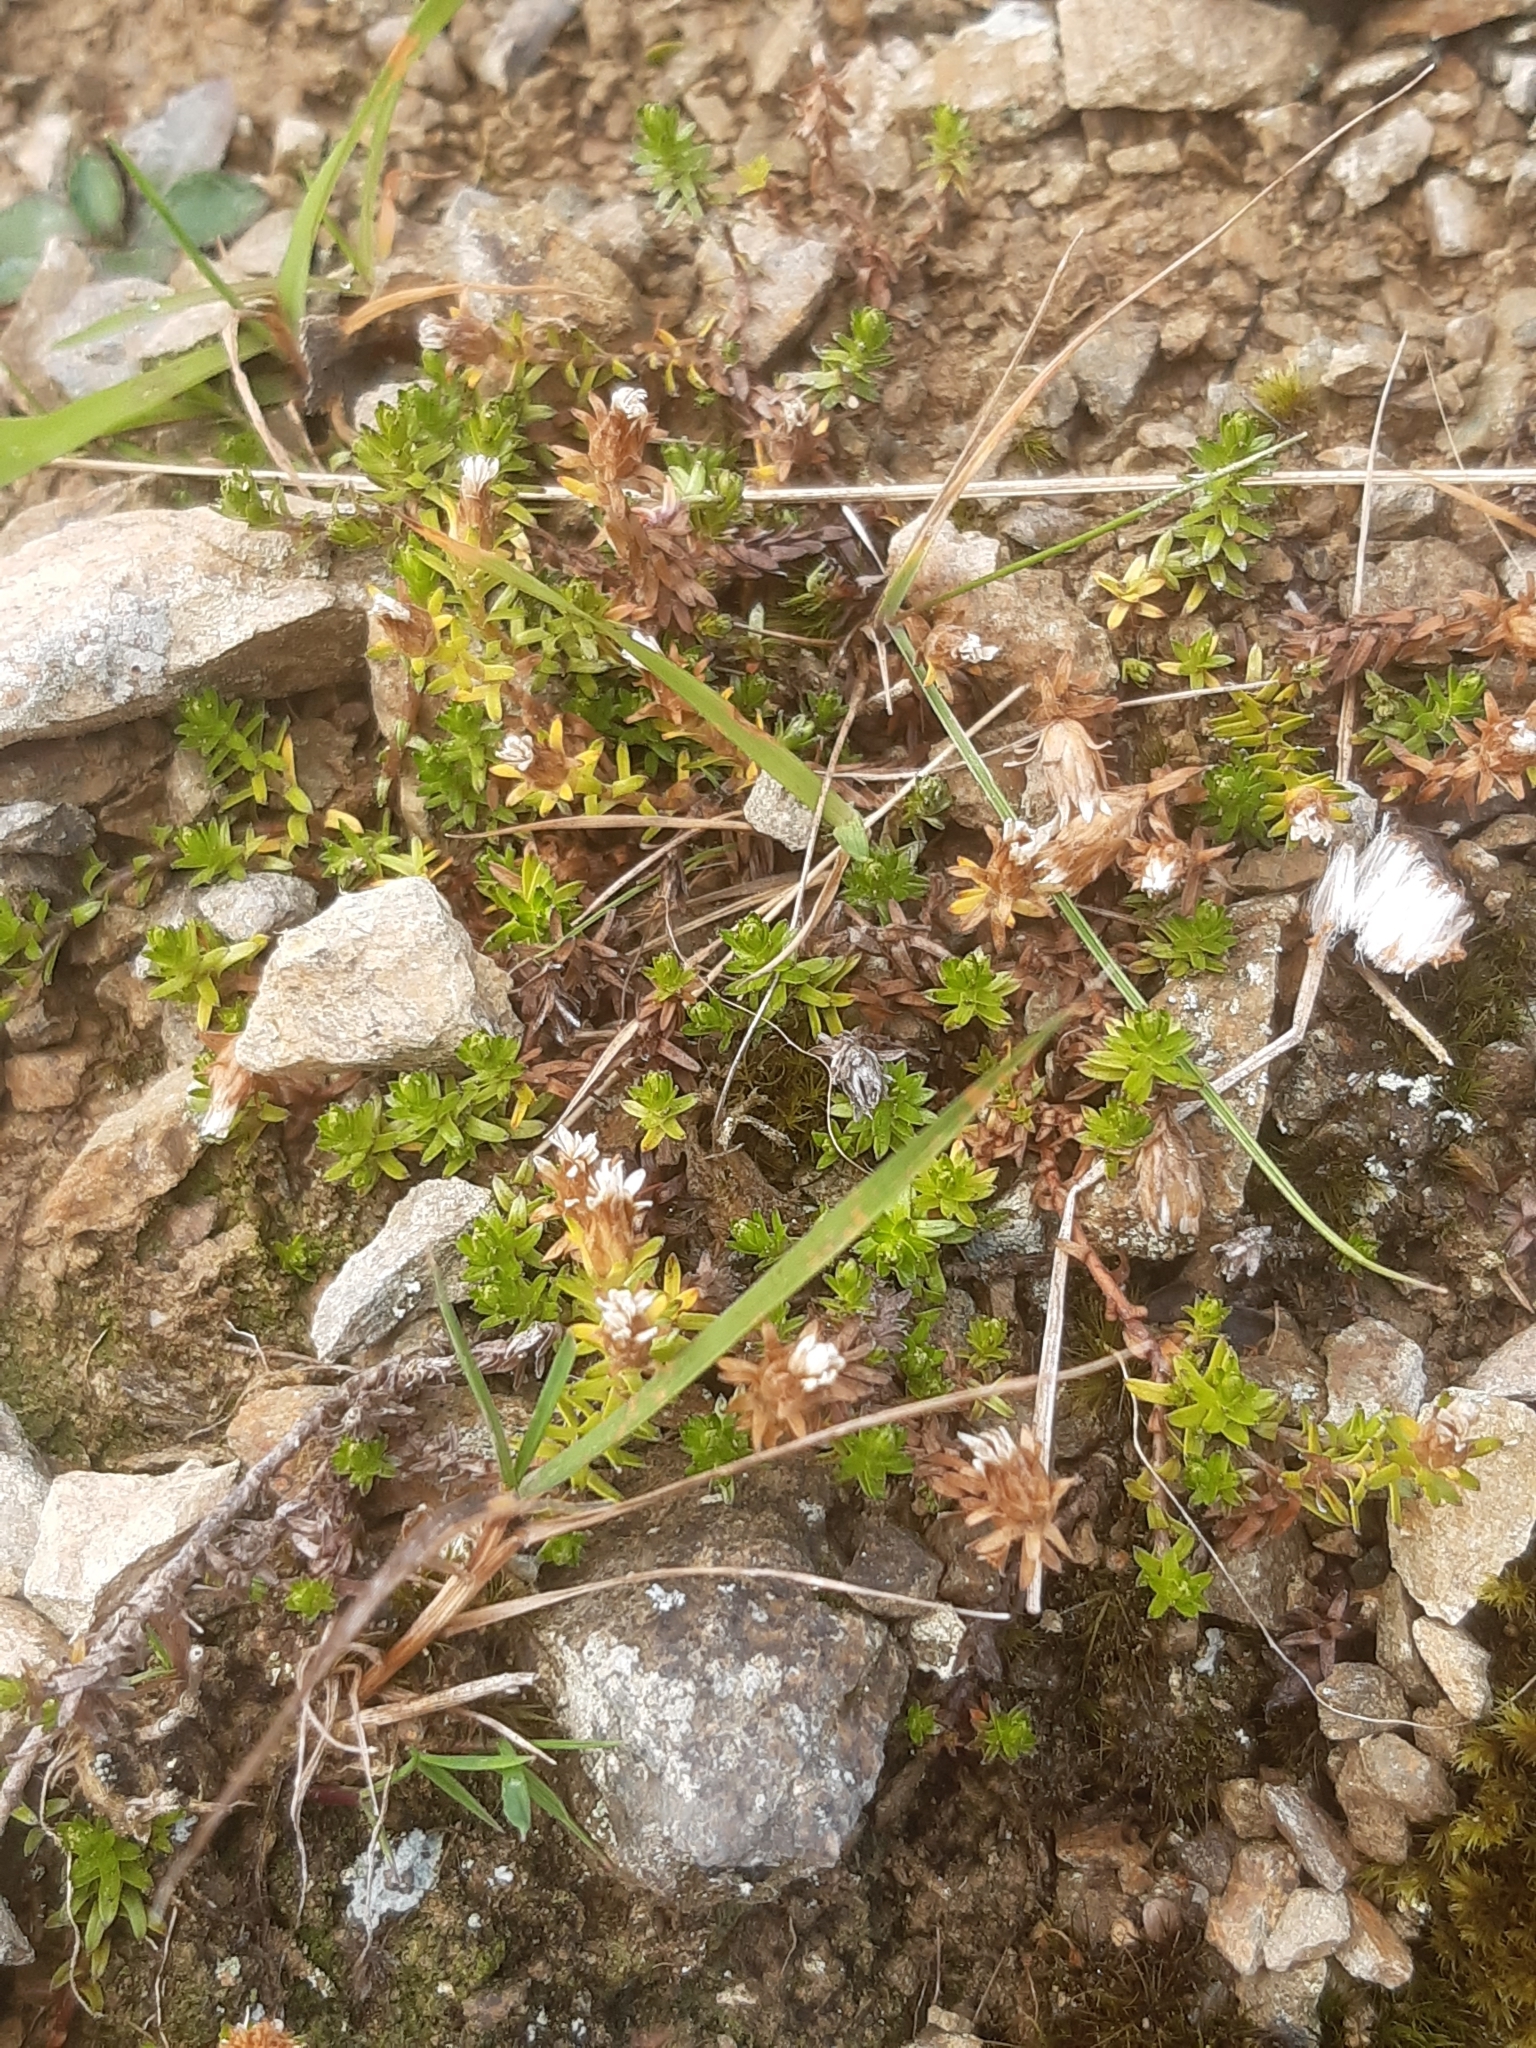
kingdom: Plantae
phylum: Tracheophyta
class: Magnoliopsida
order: Asterales
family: Asteraceae
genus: Raoulia
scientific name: Raoulia glabra
